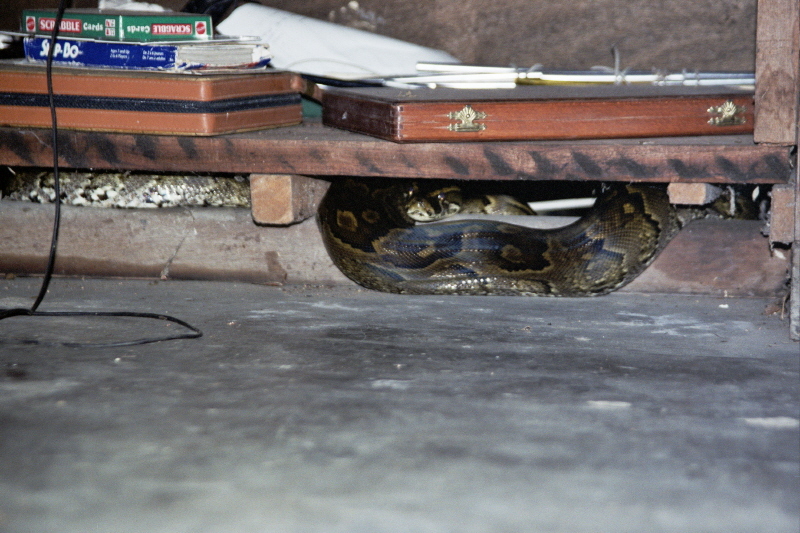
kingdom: Animalia
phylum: Chordata
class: Squamata
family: Pythonidae
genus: Python
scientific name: Python sebae
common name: African rock python
